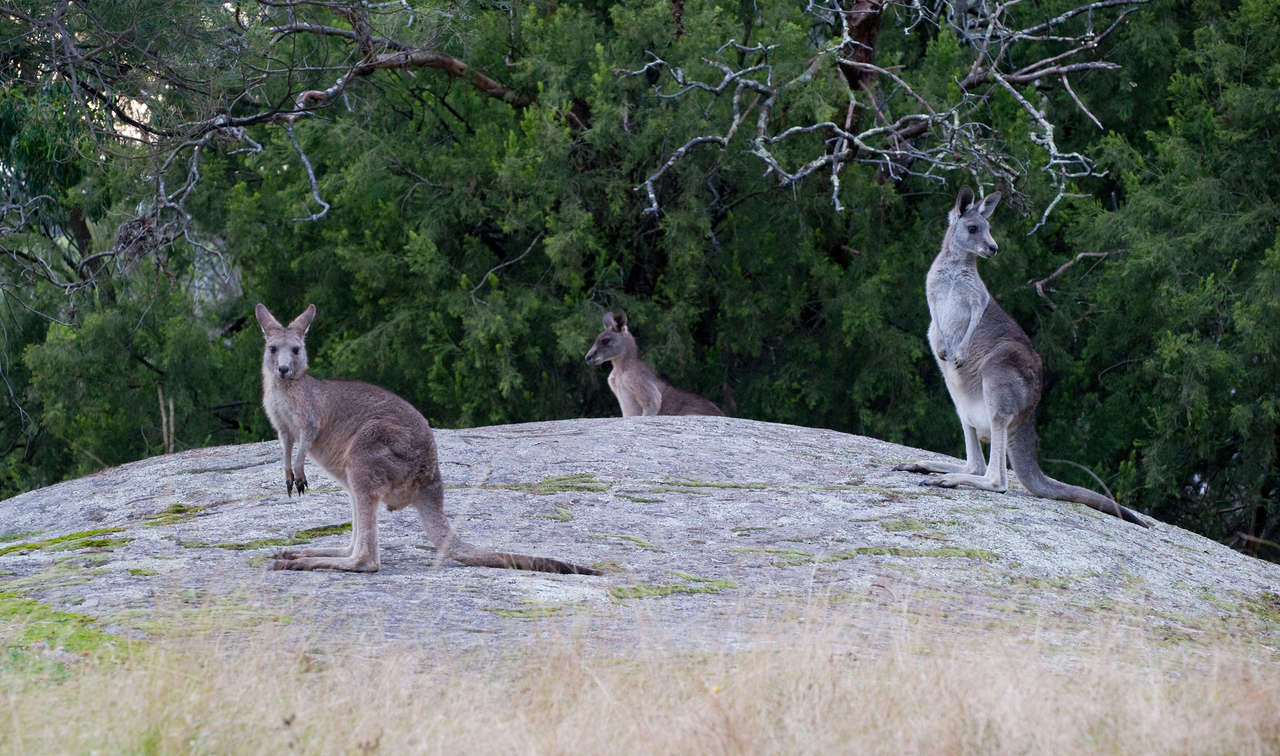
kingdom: Animalia
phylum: Chordata
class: Mammalia
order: Diprotodontia
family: Macropodidae
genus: Macropus
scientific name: Macropus giganteus
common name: Eastern grey kangaroo
